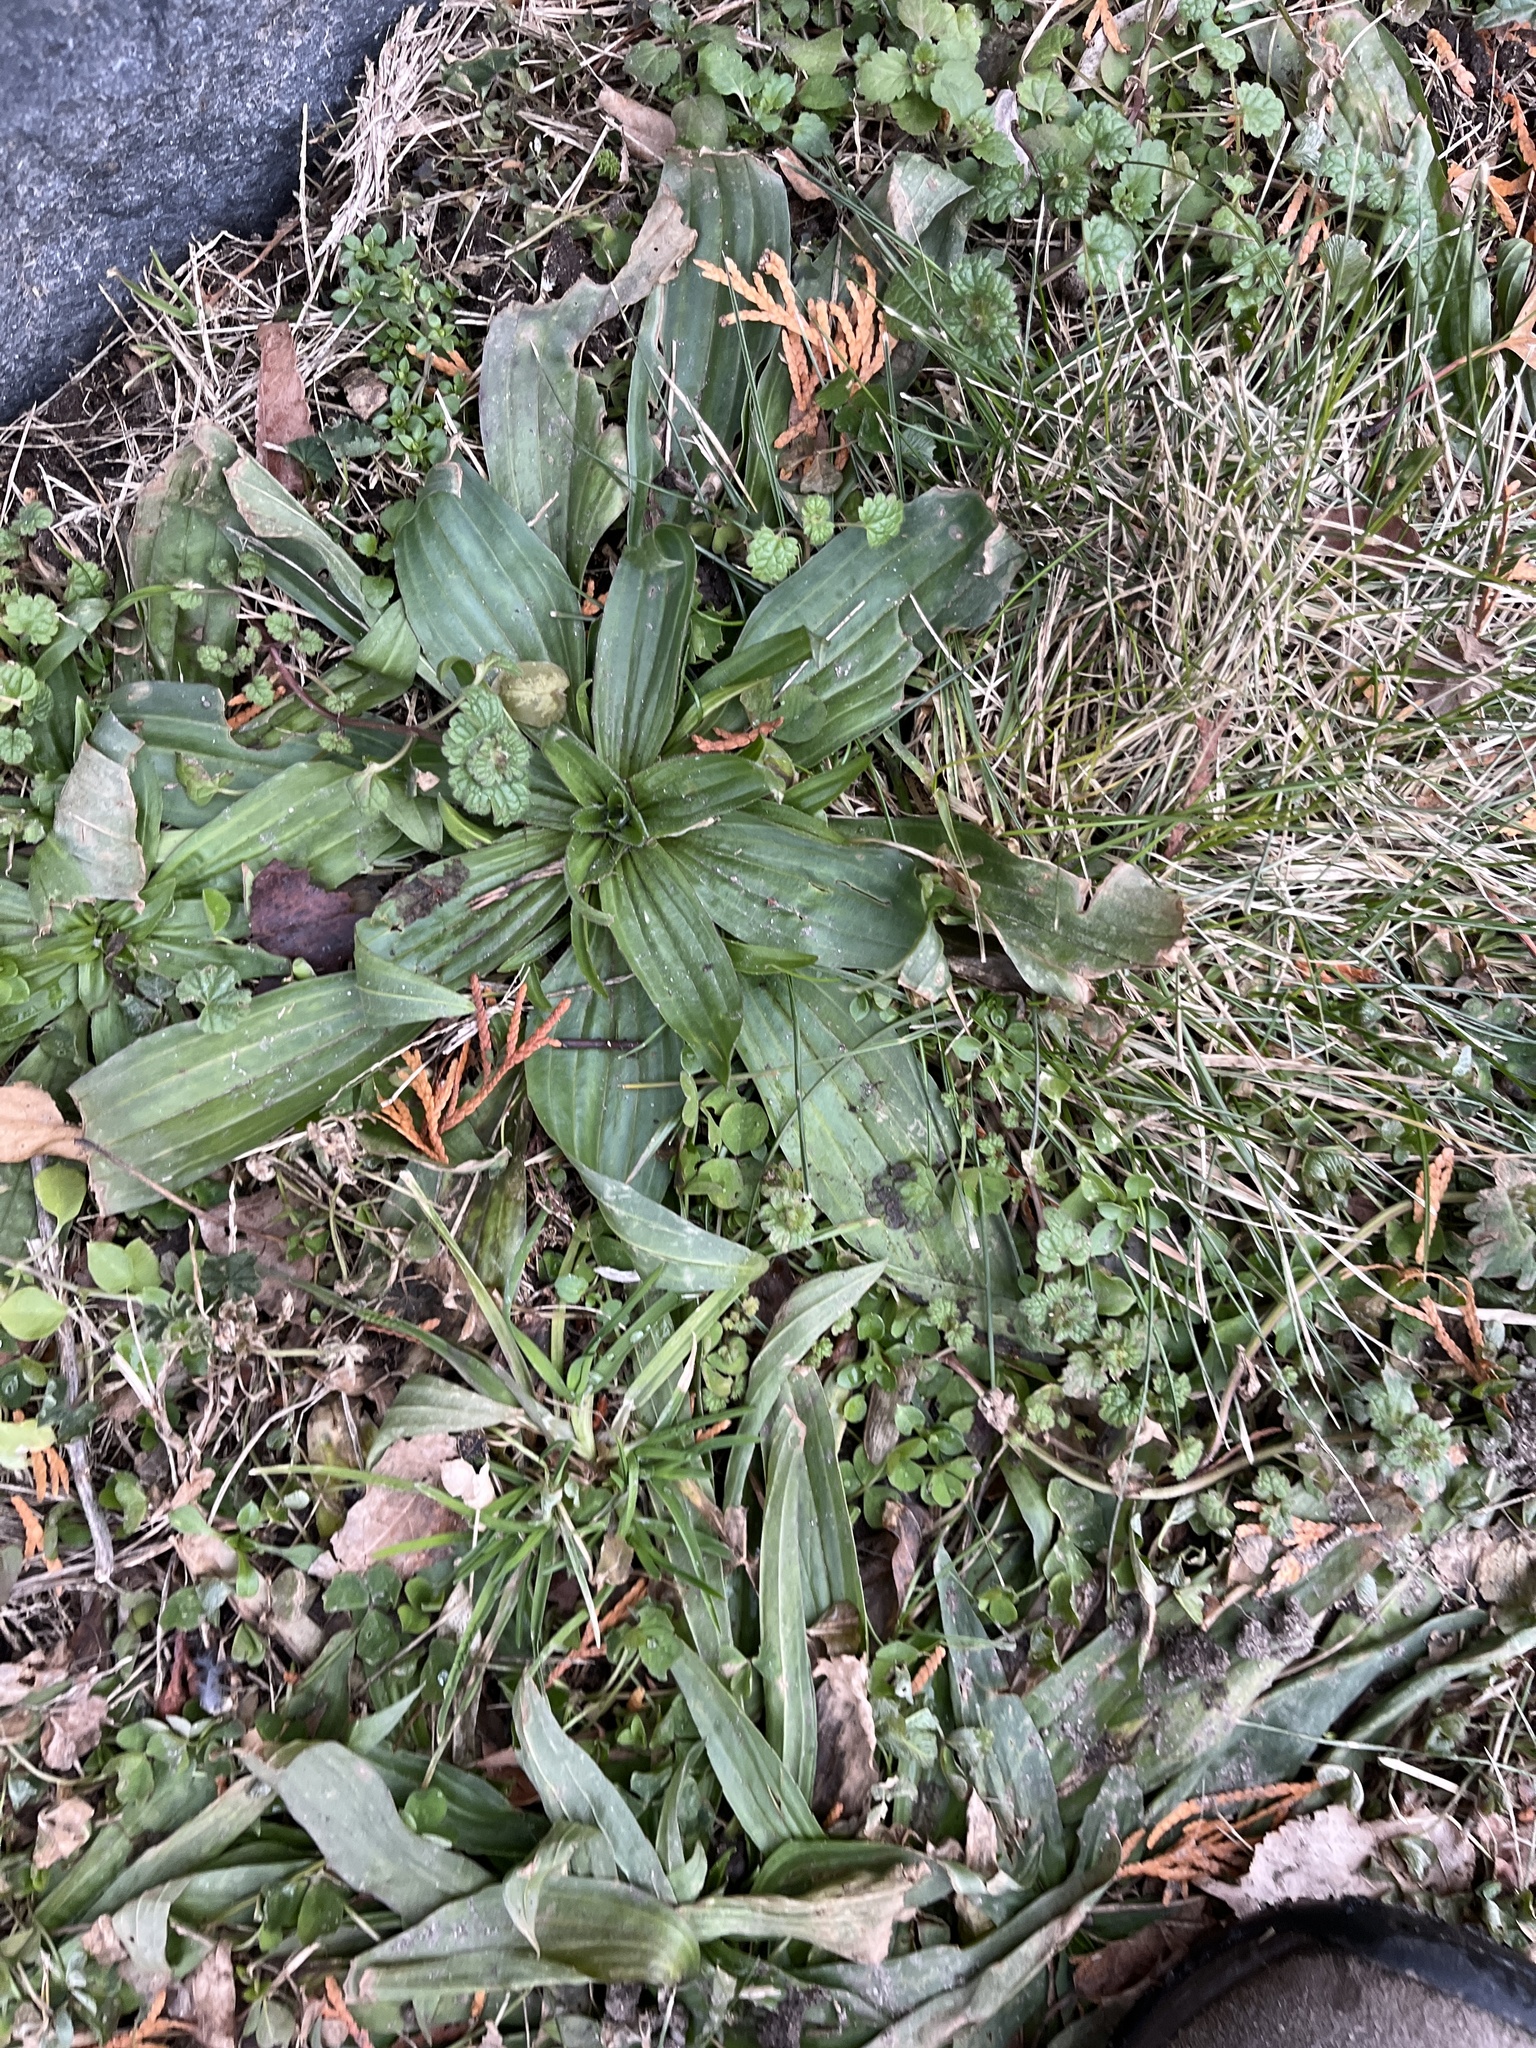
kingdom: Plantae
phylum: Tracheophyta
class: Magnoliopsida
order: Lamiales
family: Plantaginaceae
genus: Plantago
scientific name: Plantago lanceolata
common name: Ribwort plantain
